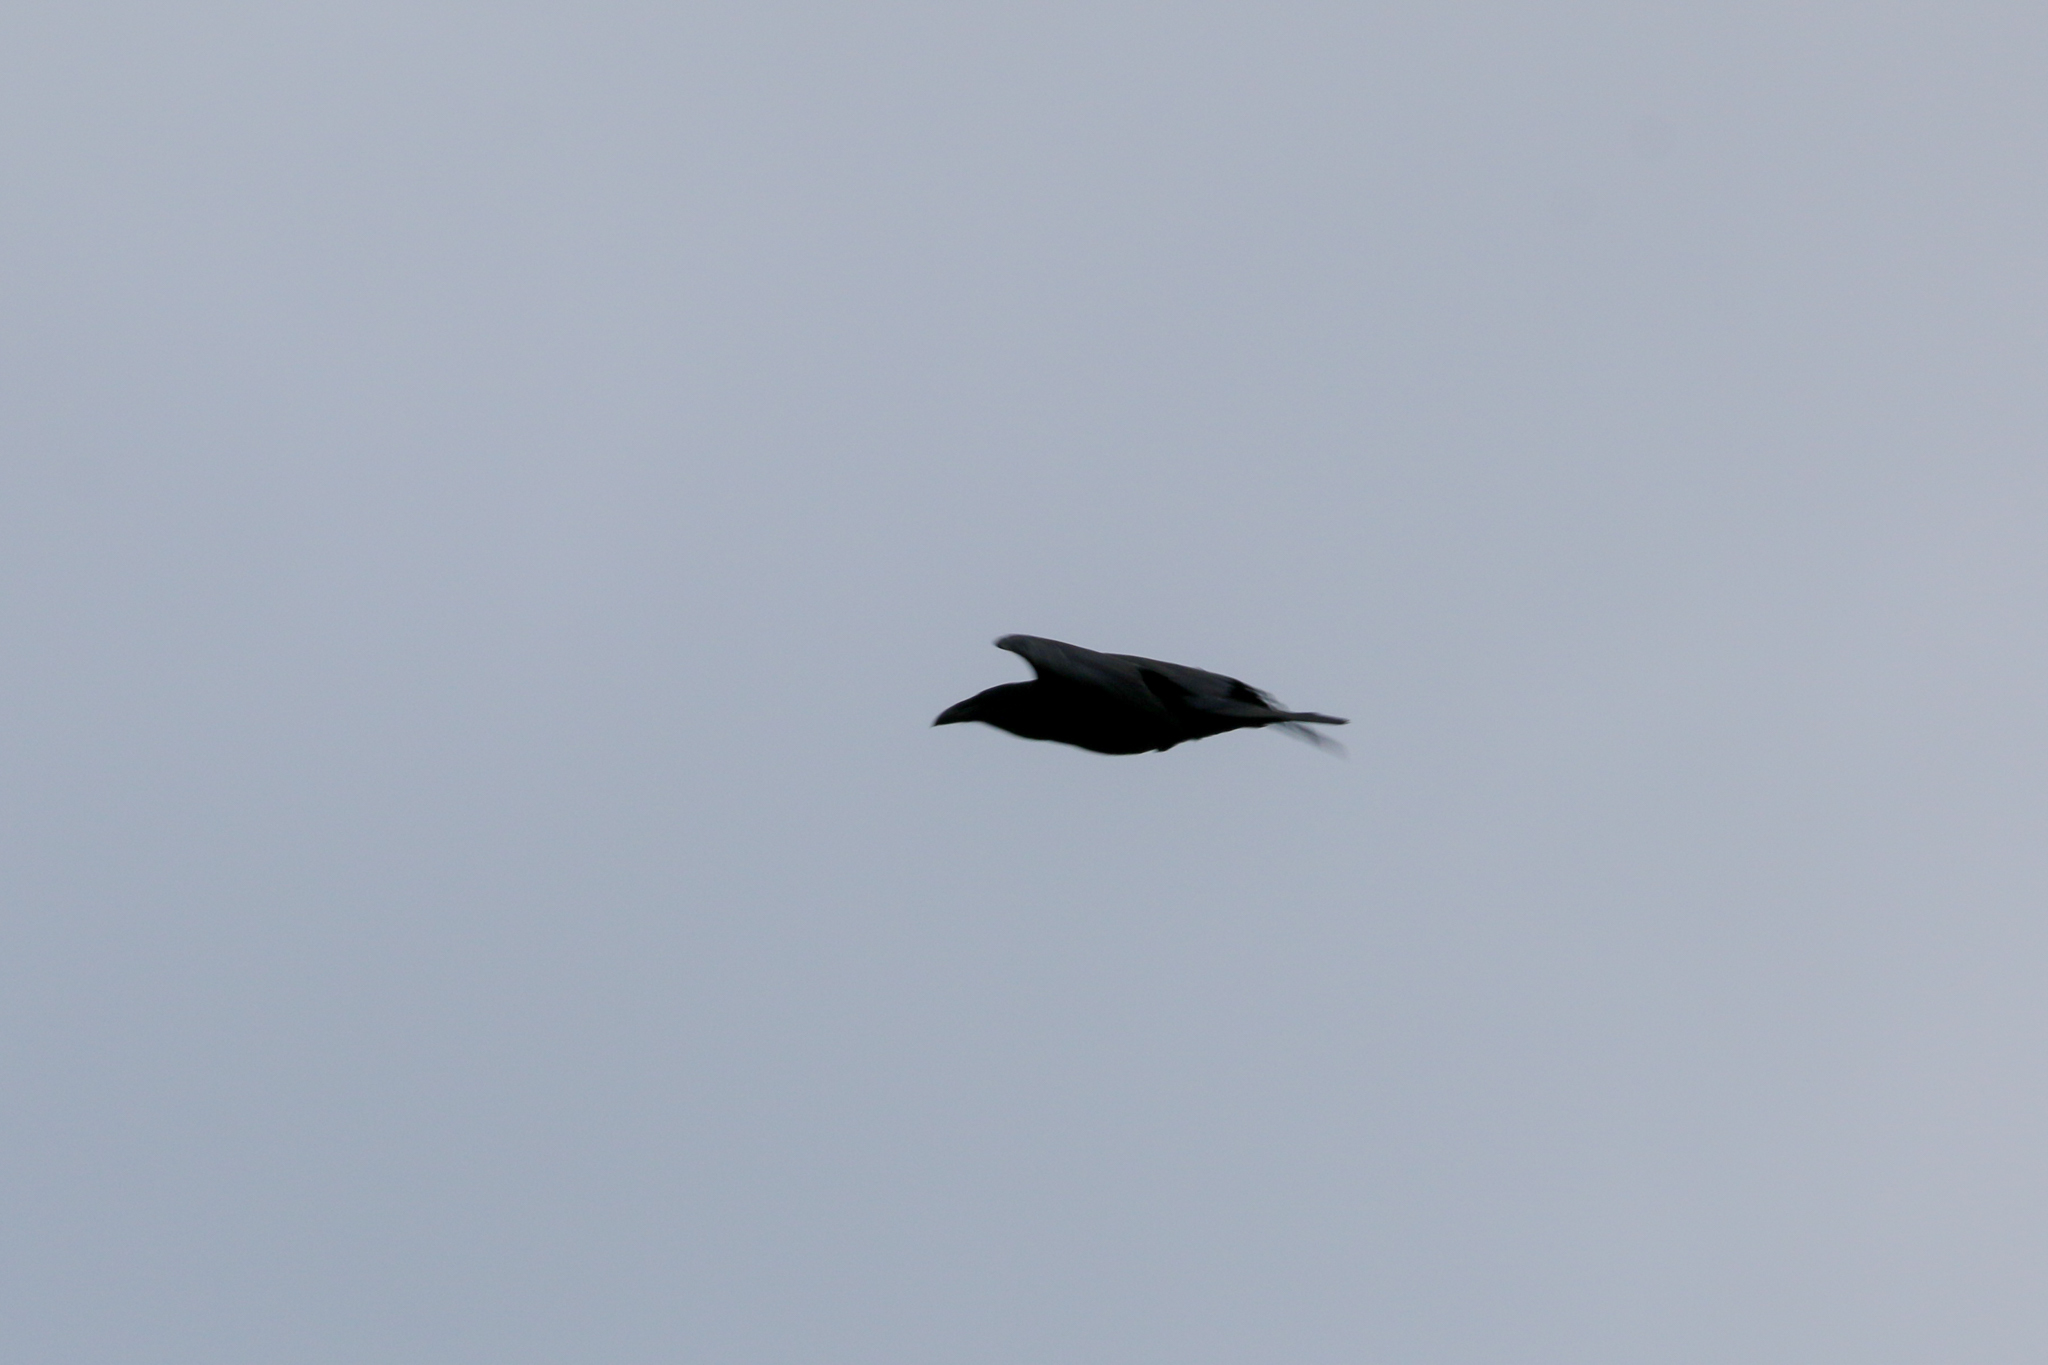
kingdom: Animalia
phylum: Chordata
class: Aves
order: Passeriformes
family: Corvidae
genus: Corvus
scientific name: Corvus corax
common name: Common raven
